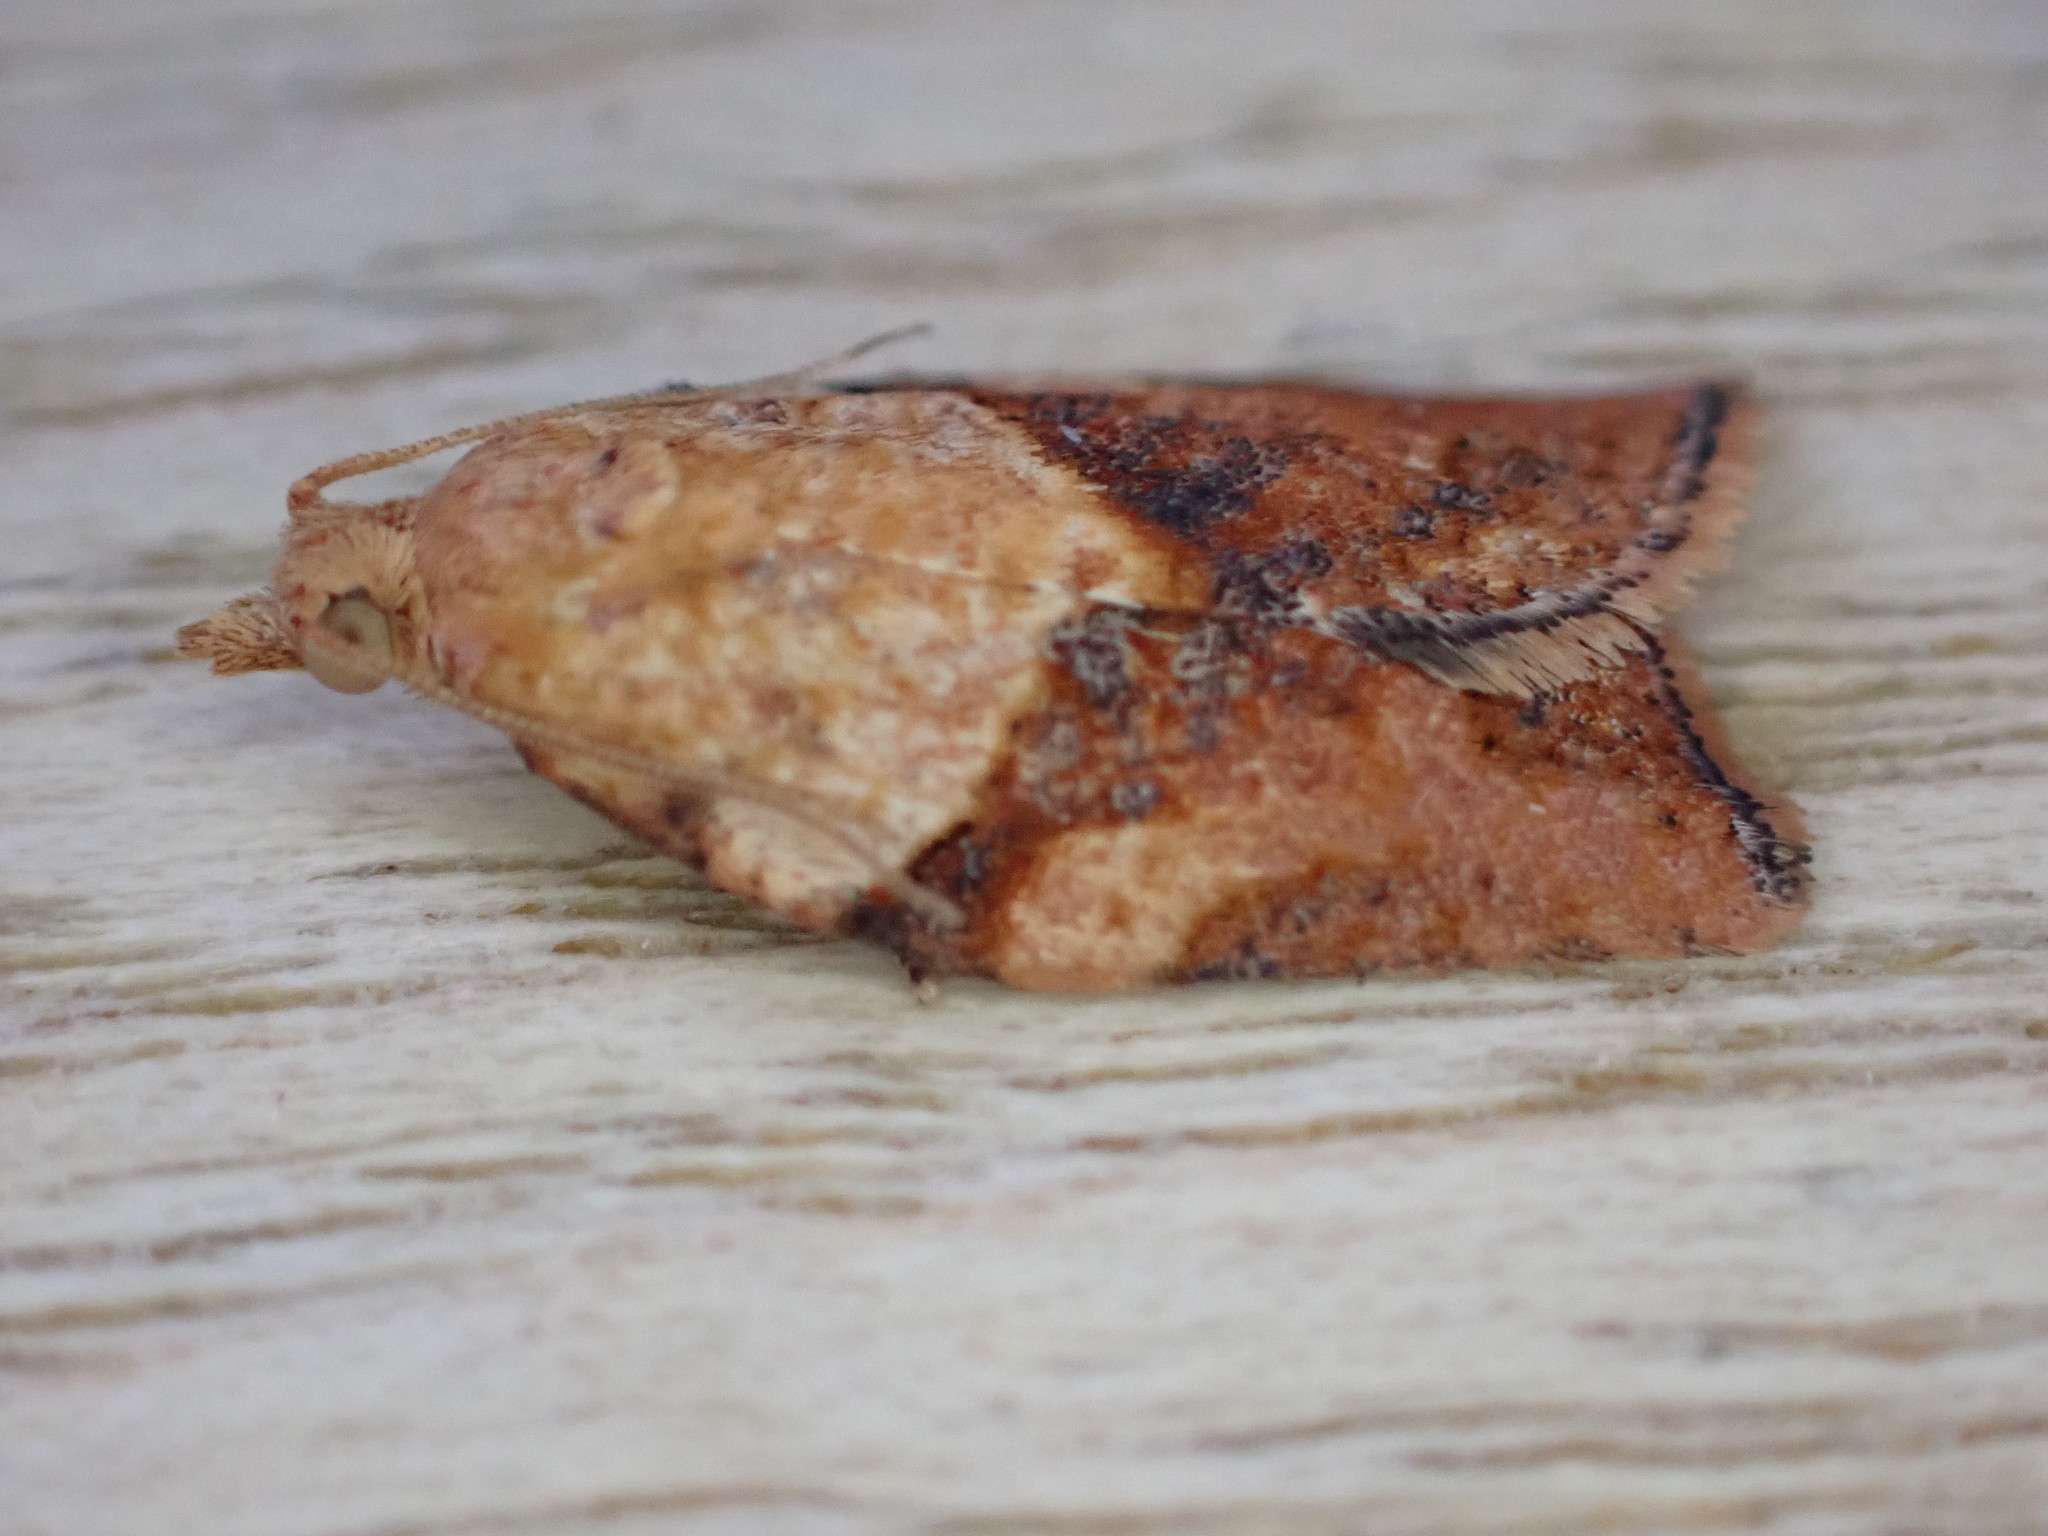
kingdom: Animalia
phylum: Arthropoda
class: Insecta
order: Lepidoptera
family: Tortricidae
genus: Epiphyas
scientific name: Epiphyas postvittana
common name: Light brown apple moth
